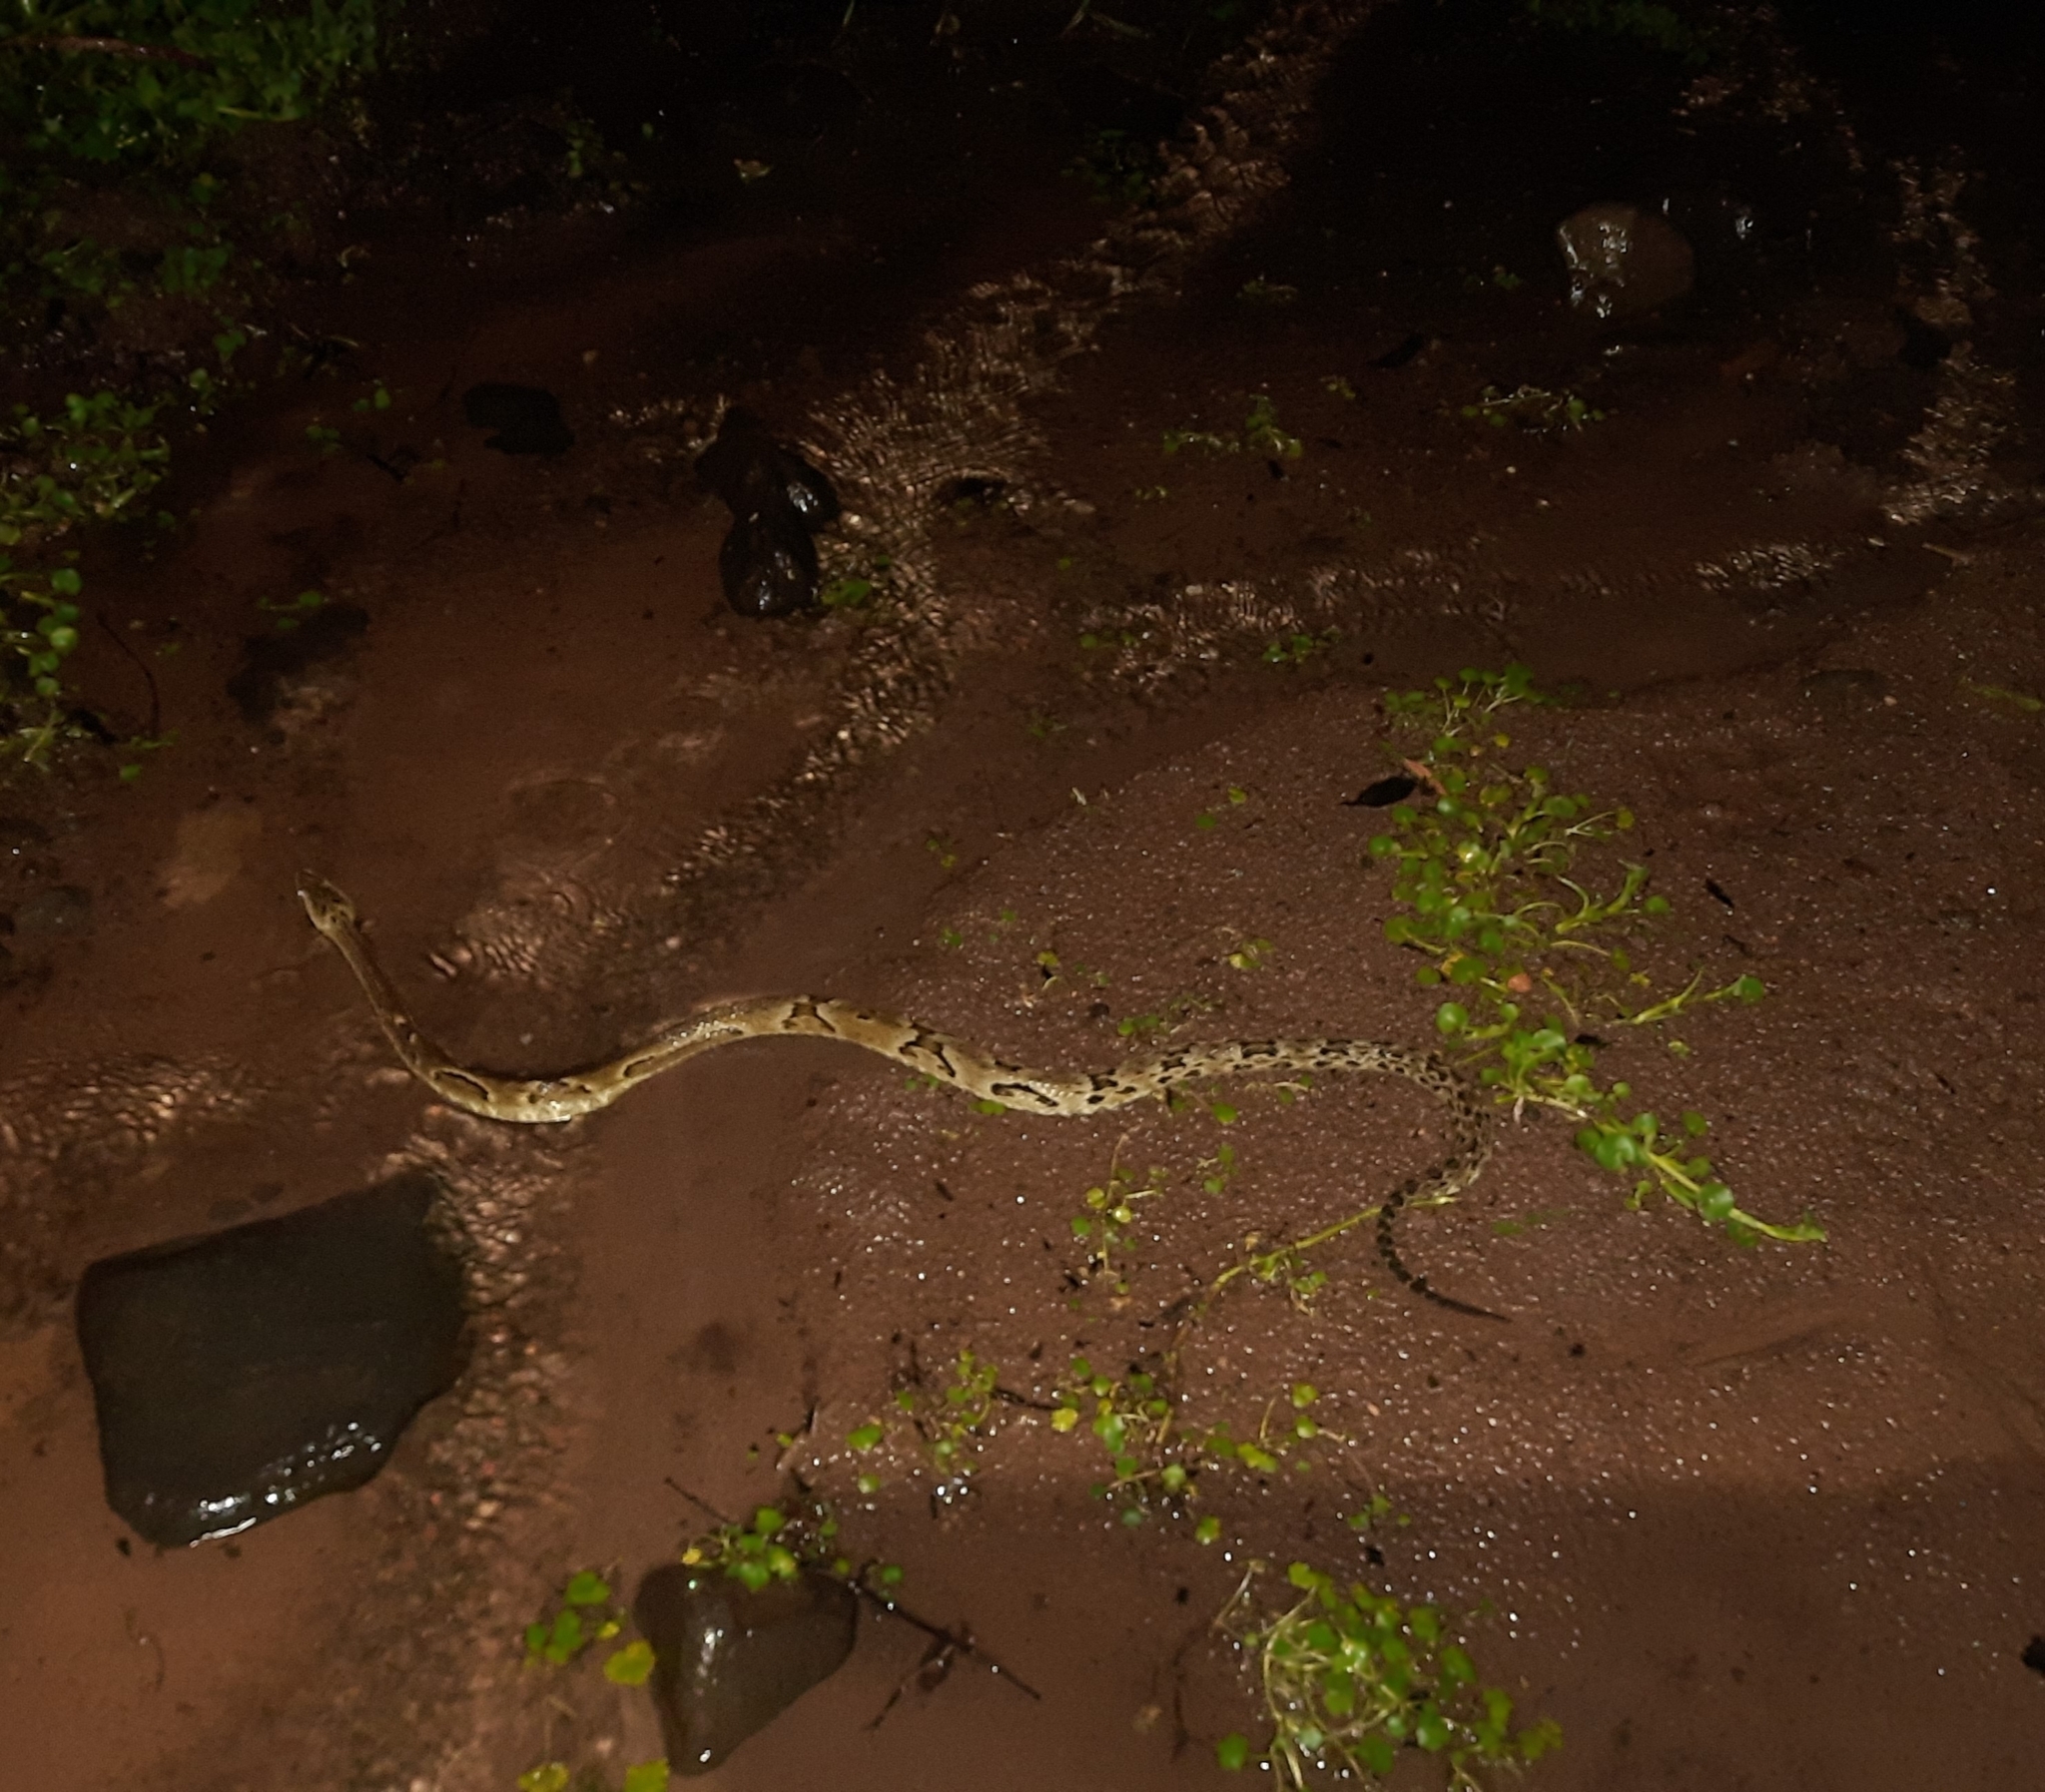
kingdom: Animalia
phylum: Chordata
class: Squamata
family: Viperidae
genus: Bothrops
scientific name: Bothrops jararaca
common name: Jararaca
